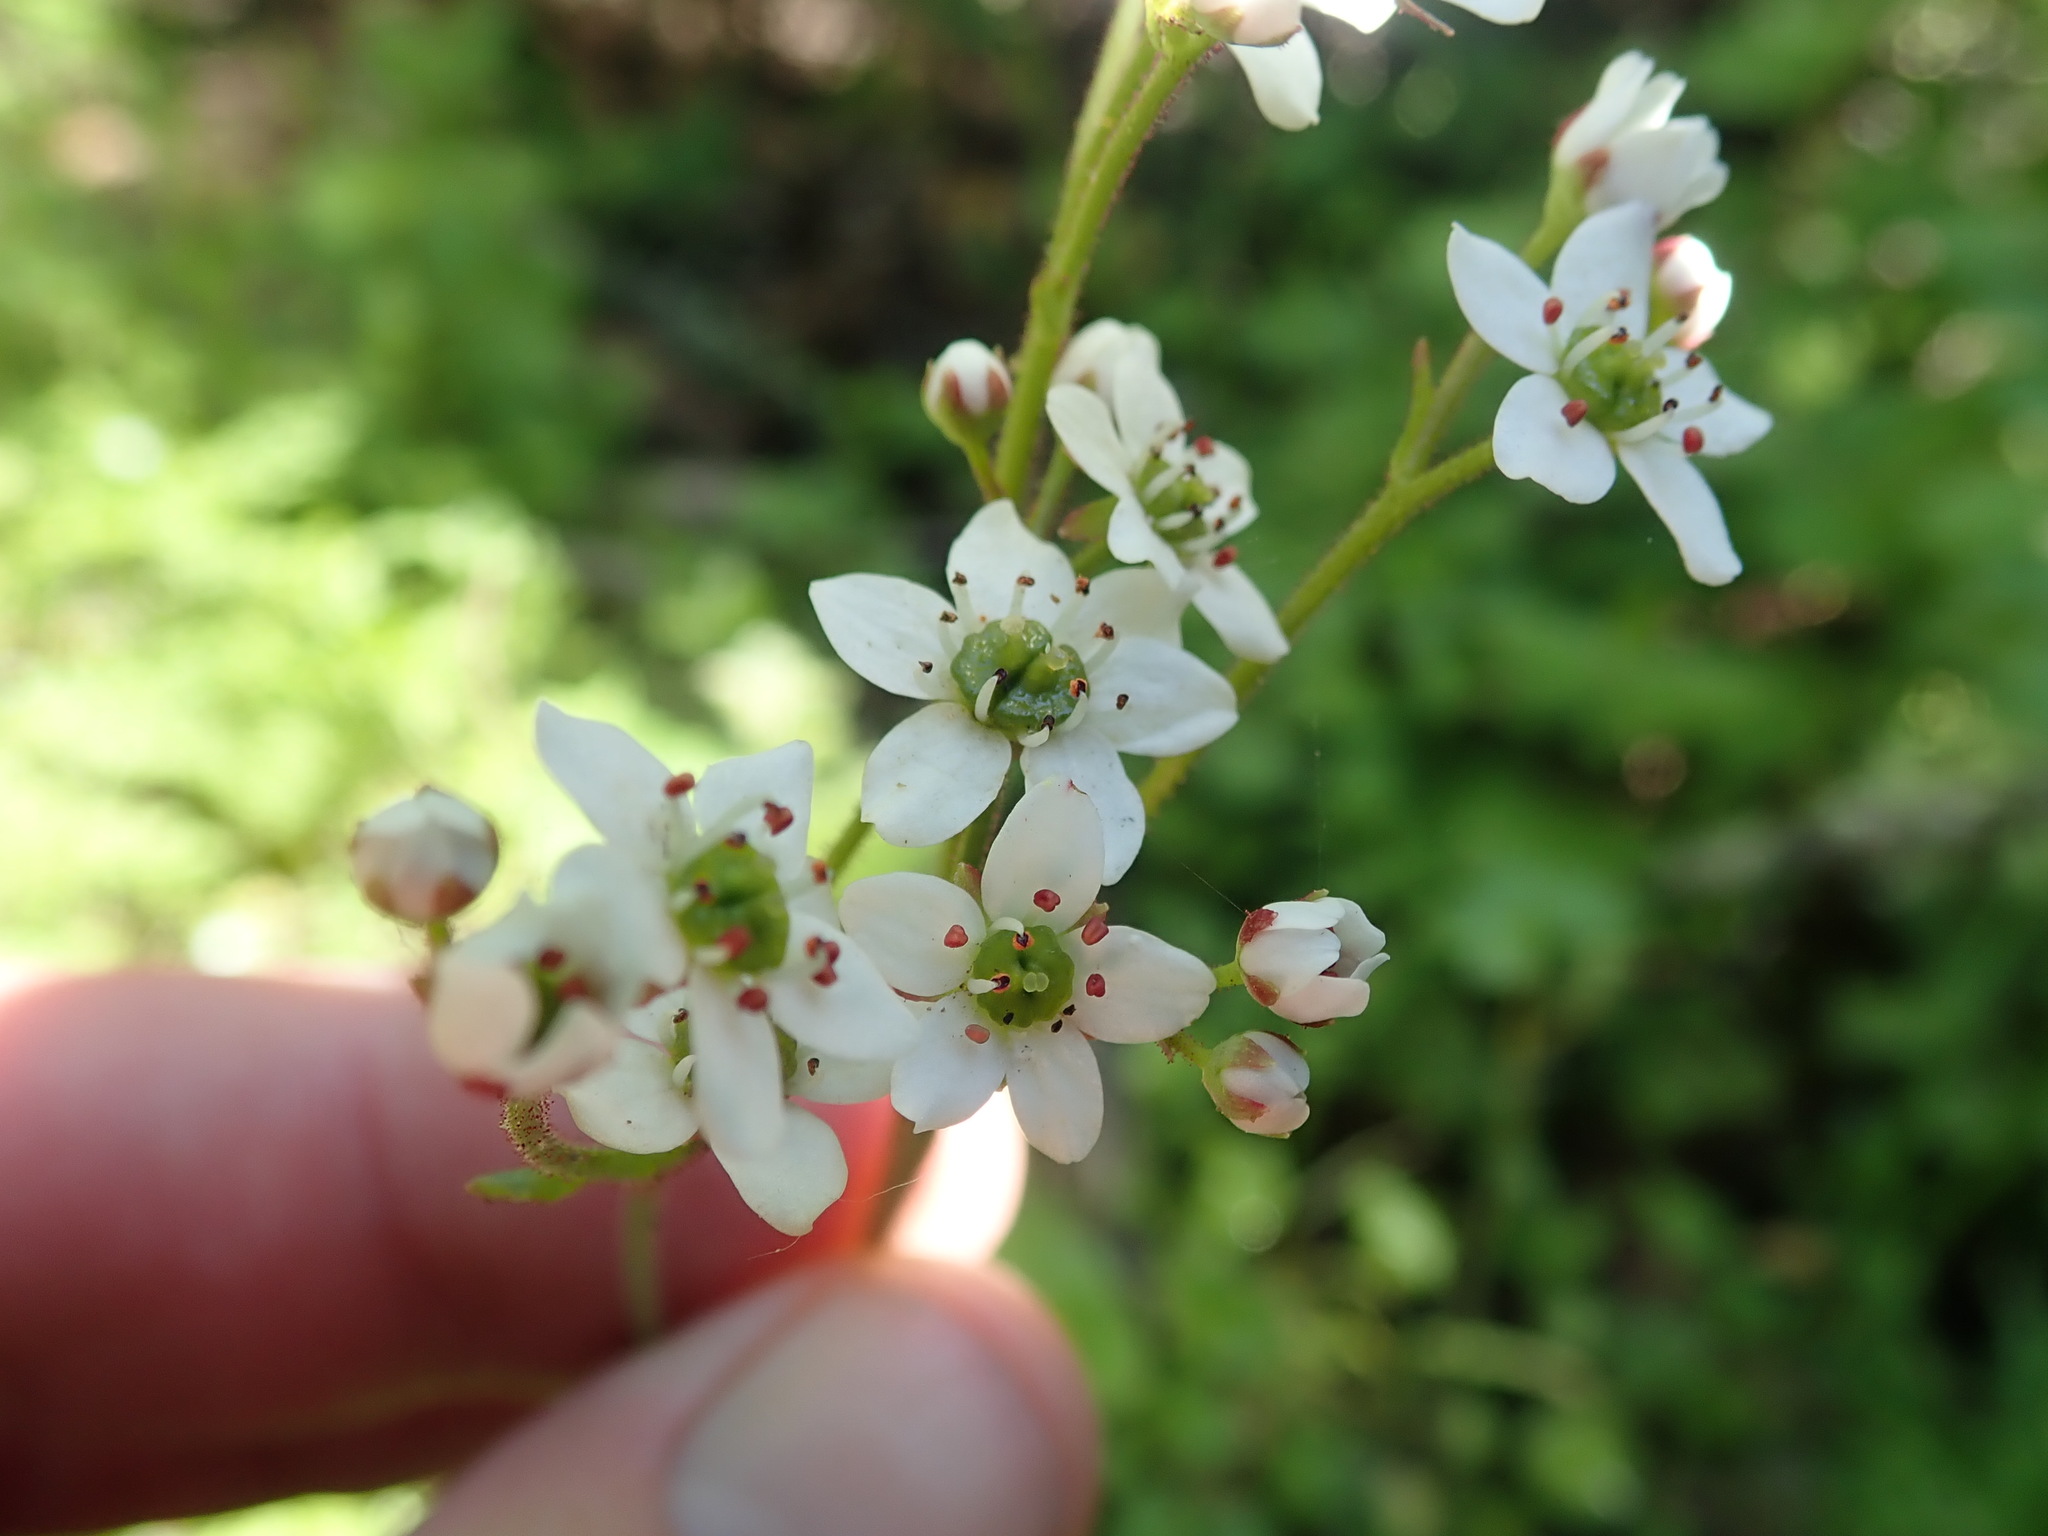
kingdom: Plantae
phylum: Tracheophyta
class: Magnoliopsida
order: Saxifragales
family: Saxifragaceae
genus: Micranthes
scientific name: Micranthes californica
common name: California saxifrage
